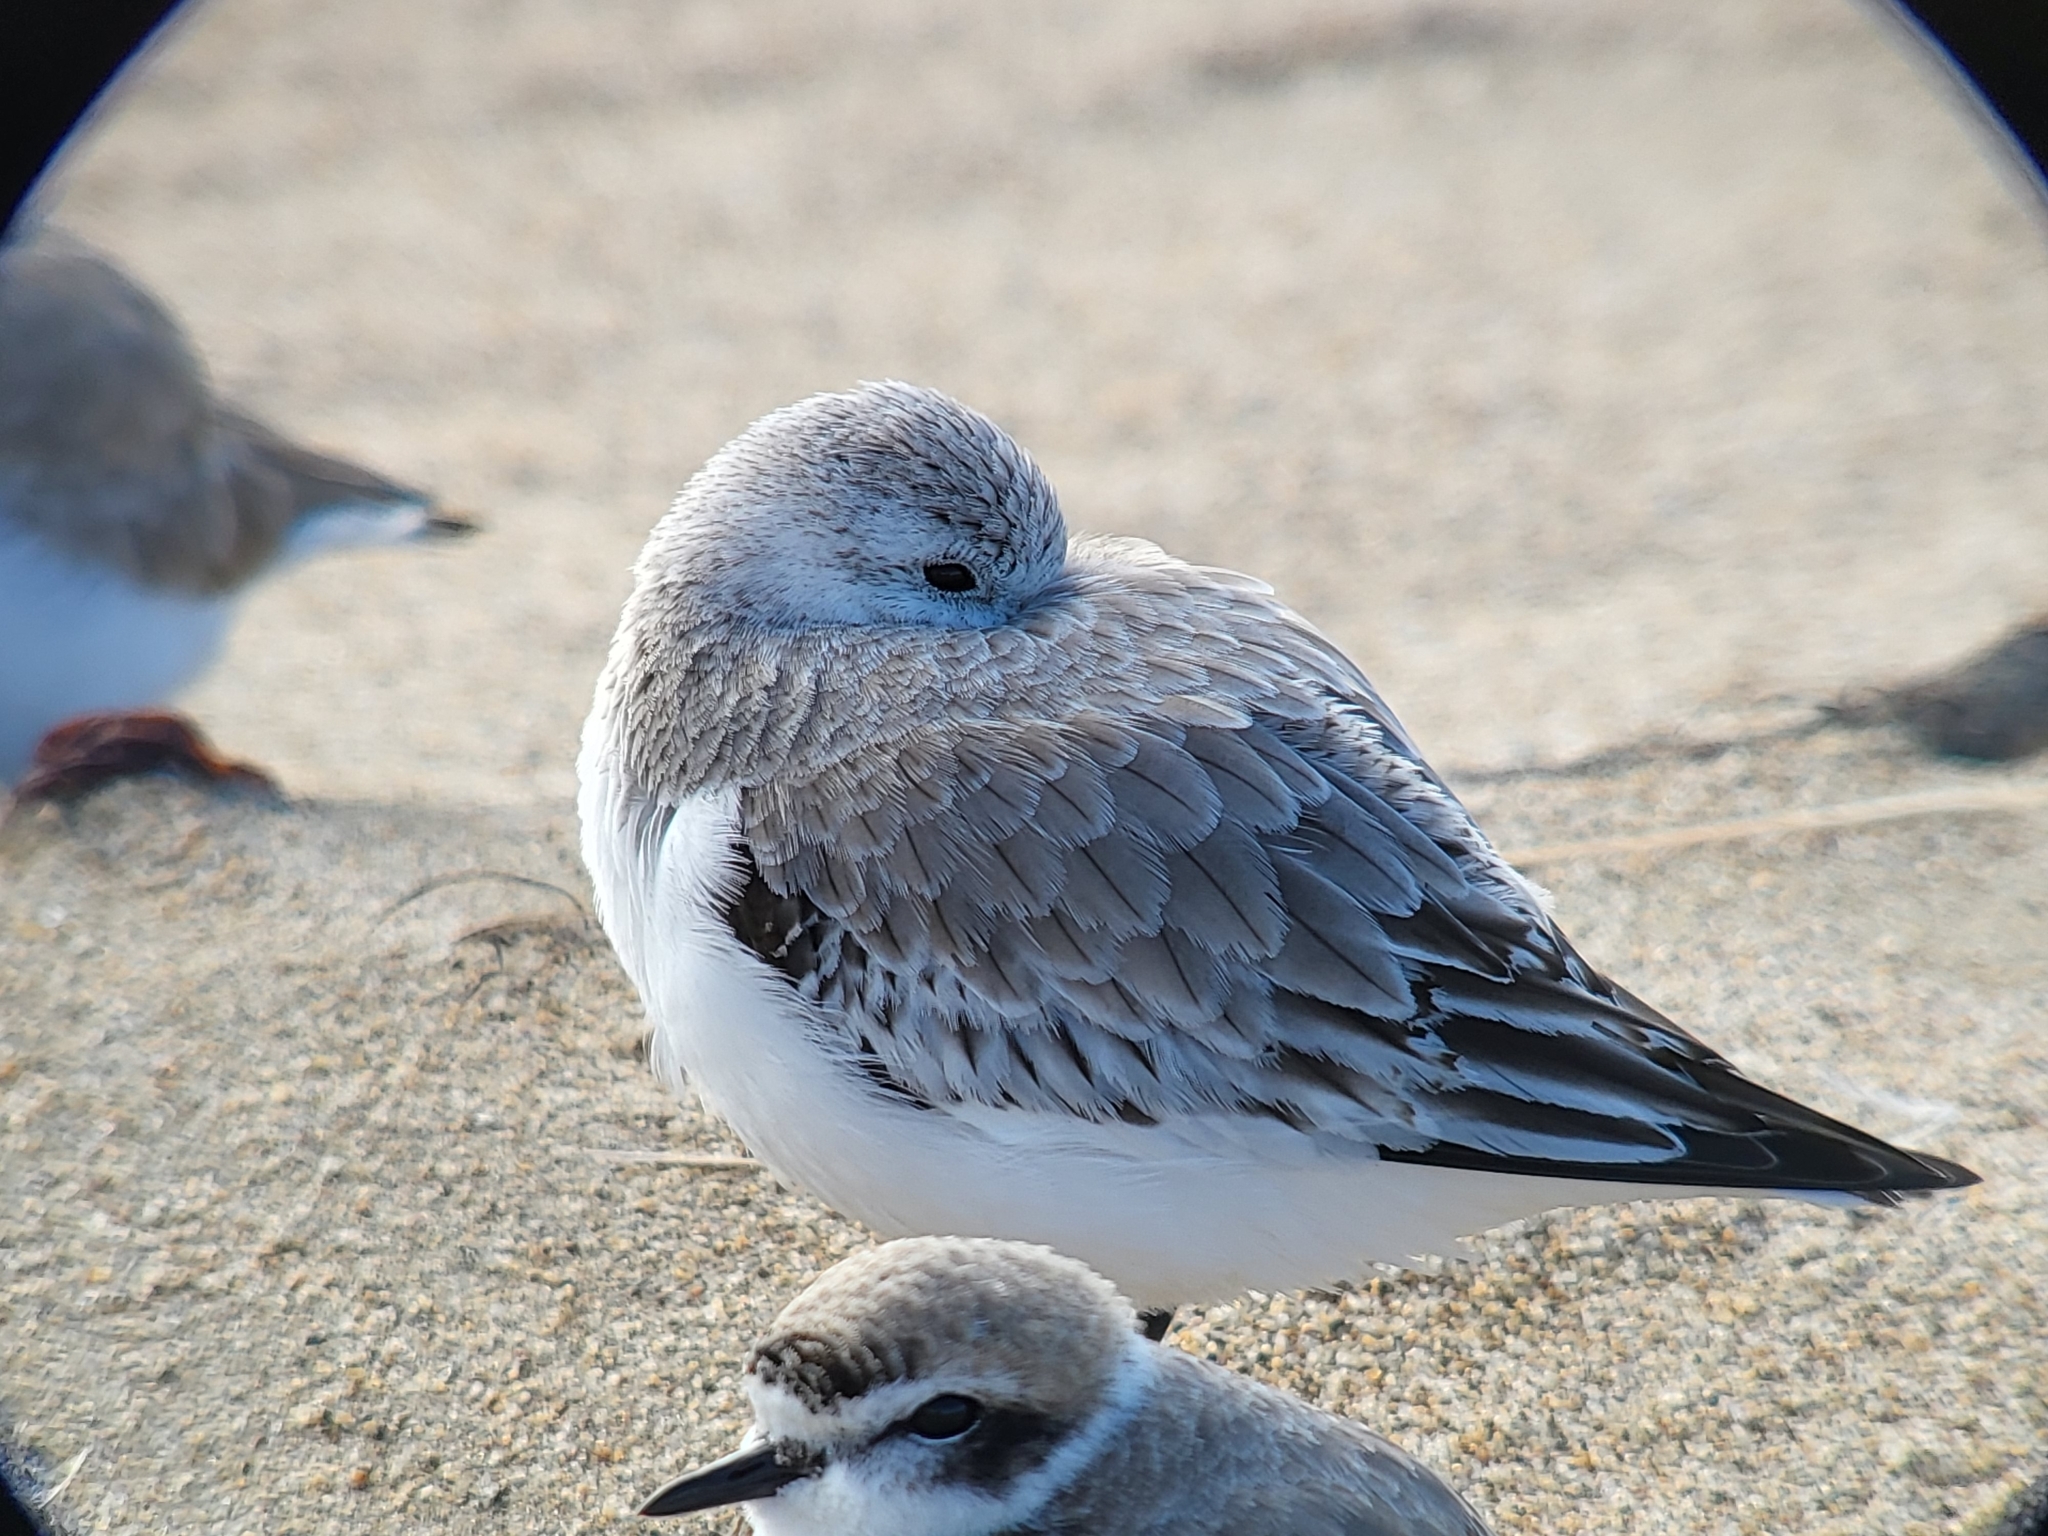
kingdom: Animalia
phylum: Chordata
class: Aves
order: Charadriiformes
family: Scolopacidae
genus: Calidris
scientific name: Calidris alba
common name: Sanderling
